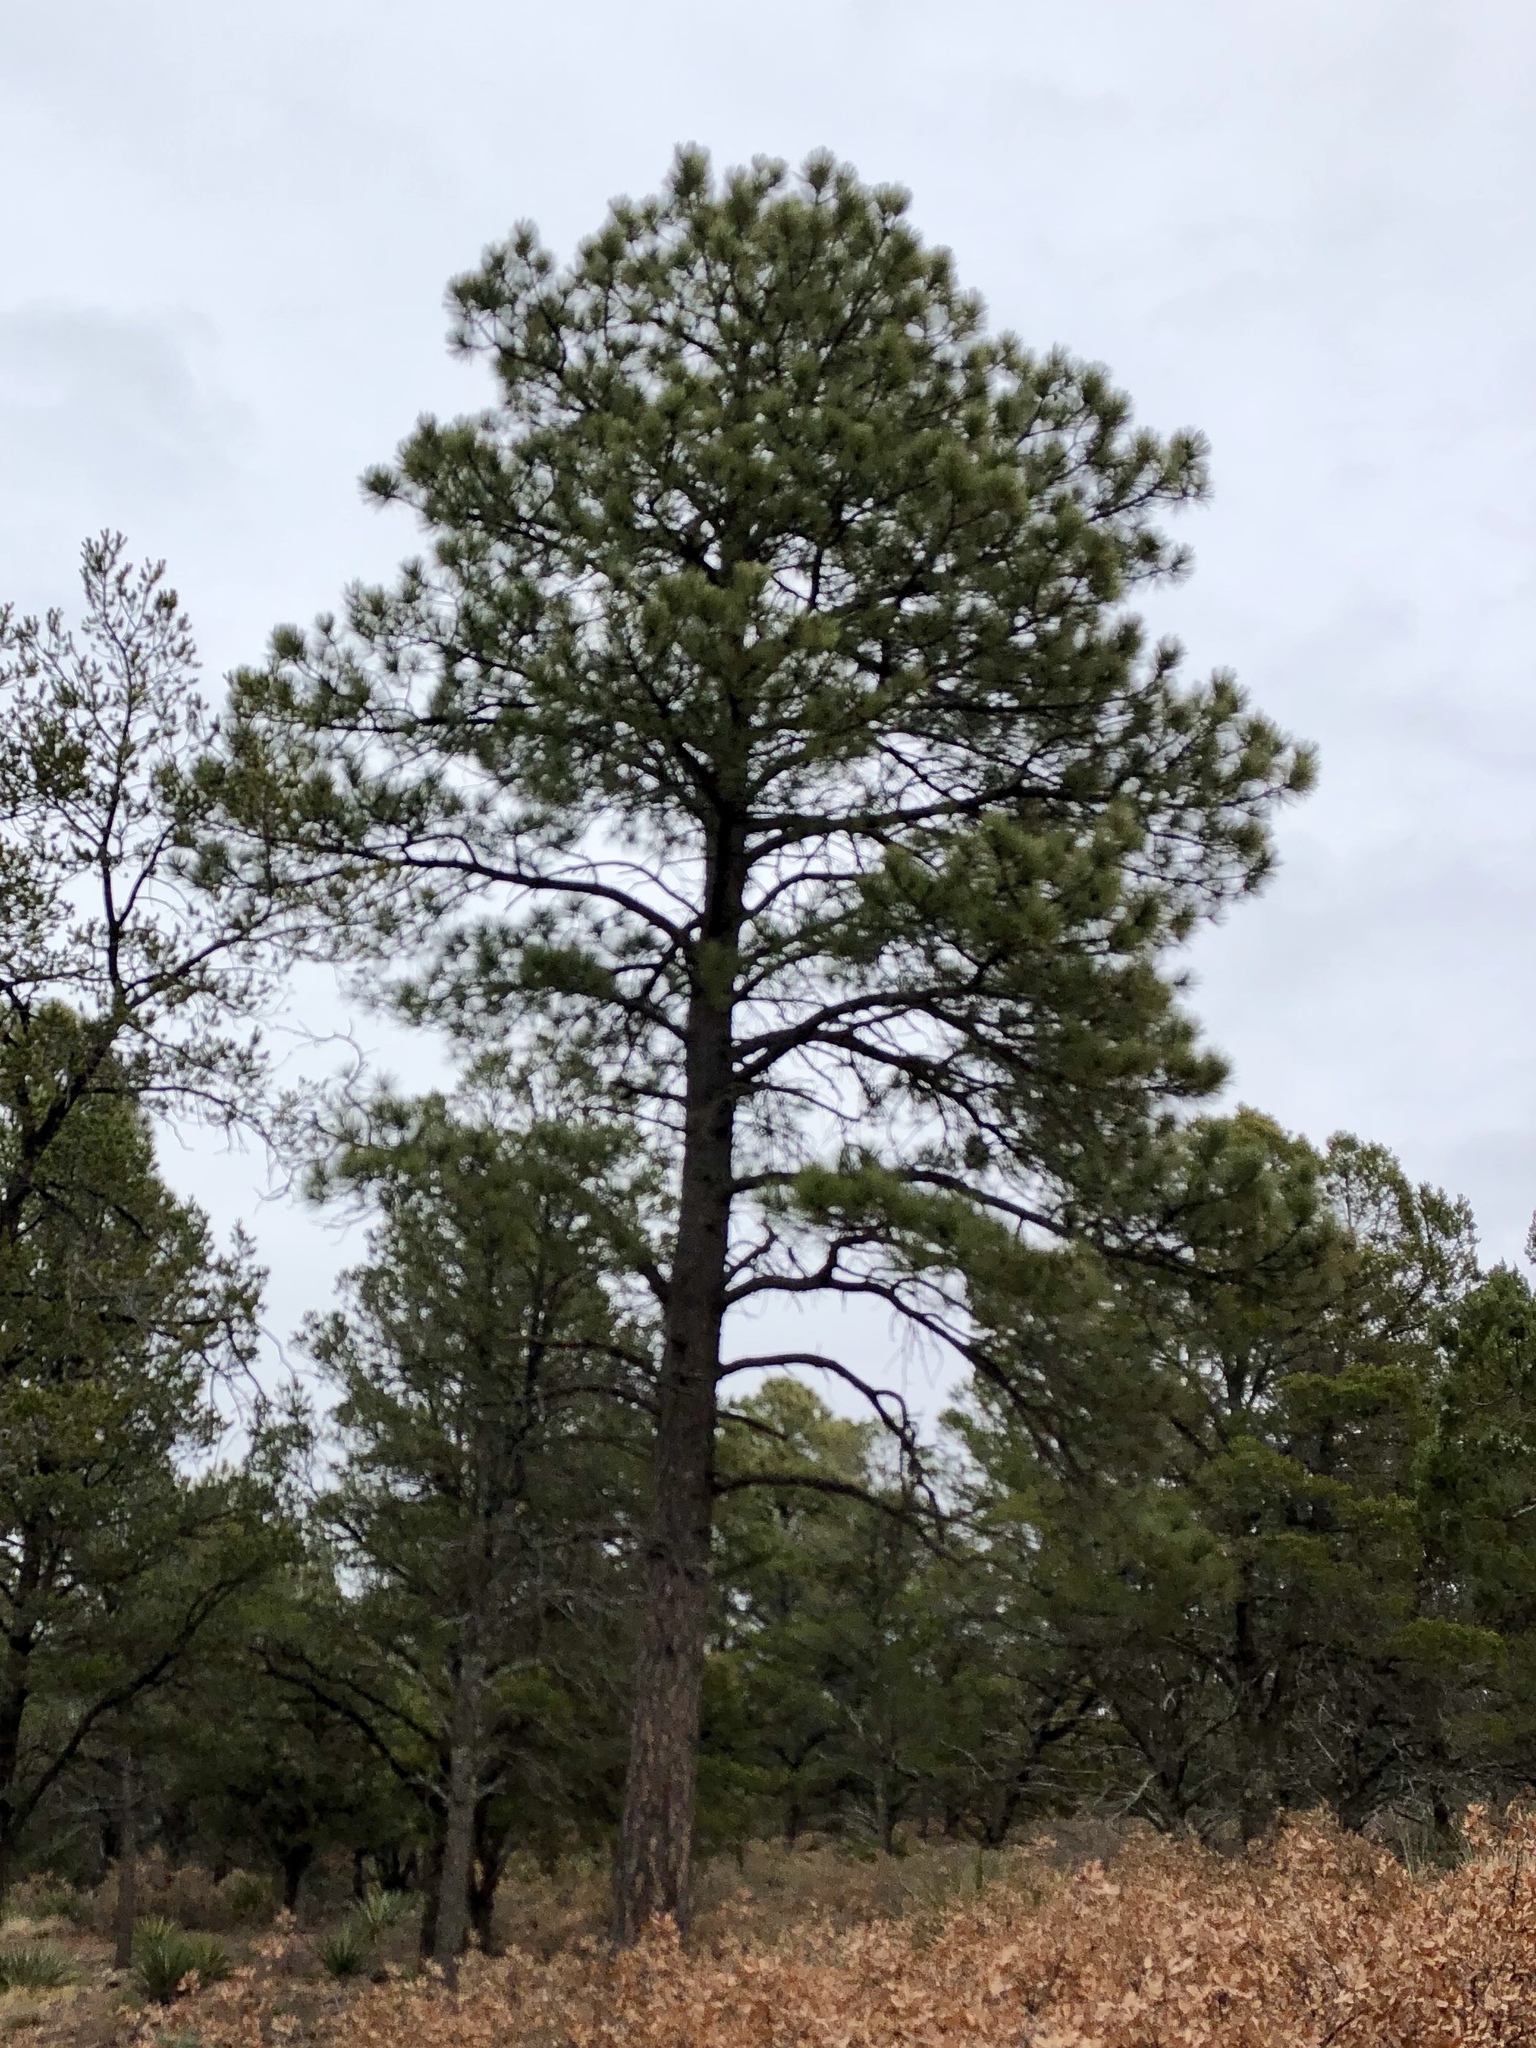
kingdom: Plantae
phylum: Tracheophyta
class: Pinopsida
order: Pinales
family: Pinaceae
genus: Pinus
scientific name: Pinus ponderosa
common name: Western yellow-pine
